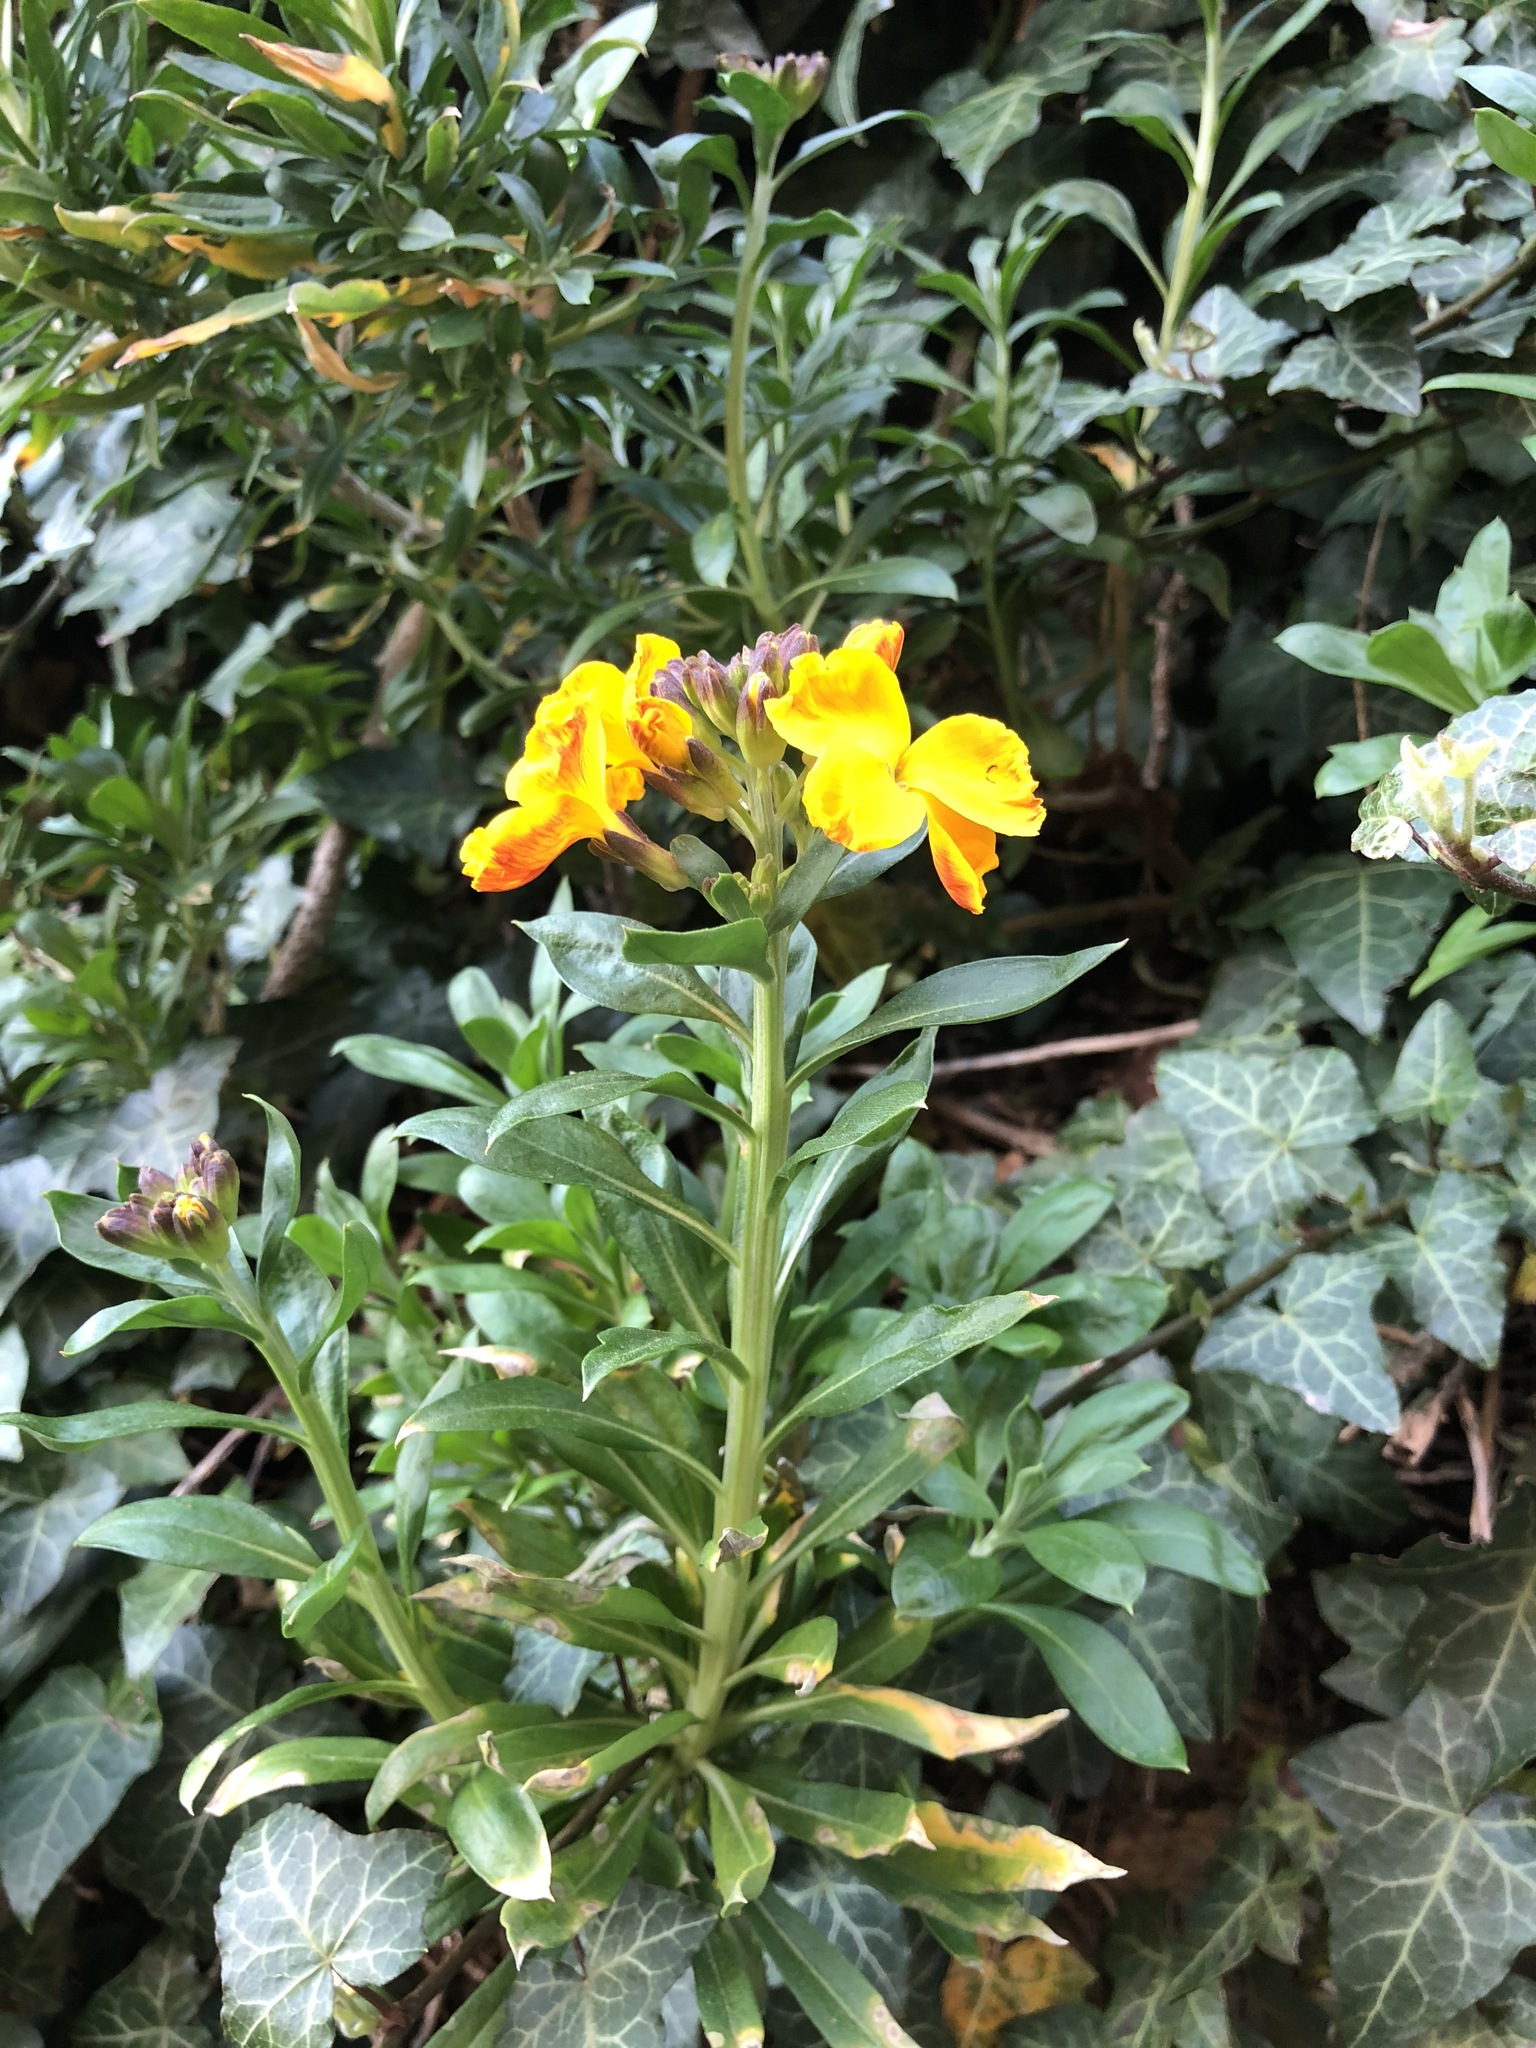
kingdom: Plantae
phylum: Tracheophyta
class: Magnoliopsida
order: Brassicales
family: Brassicaceae
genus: Erysimum
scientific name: Erysimum cheiri
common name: Wallflower
